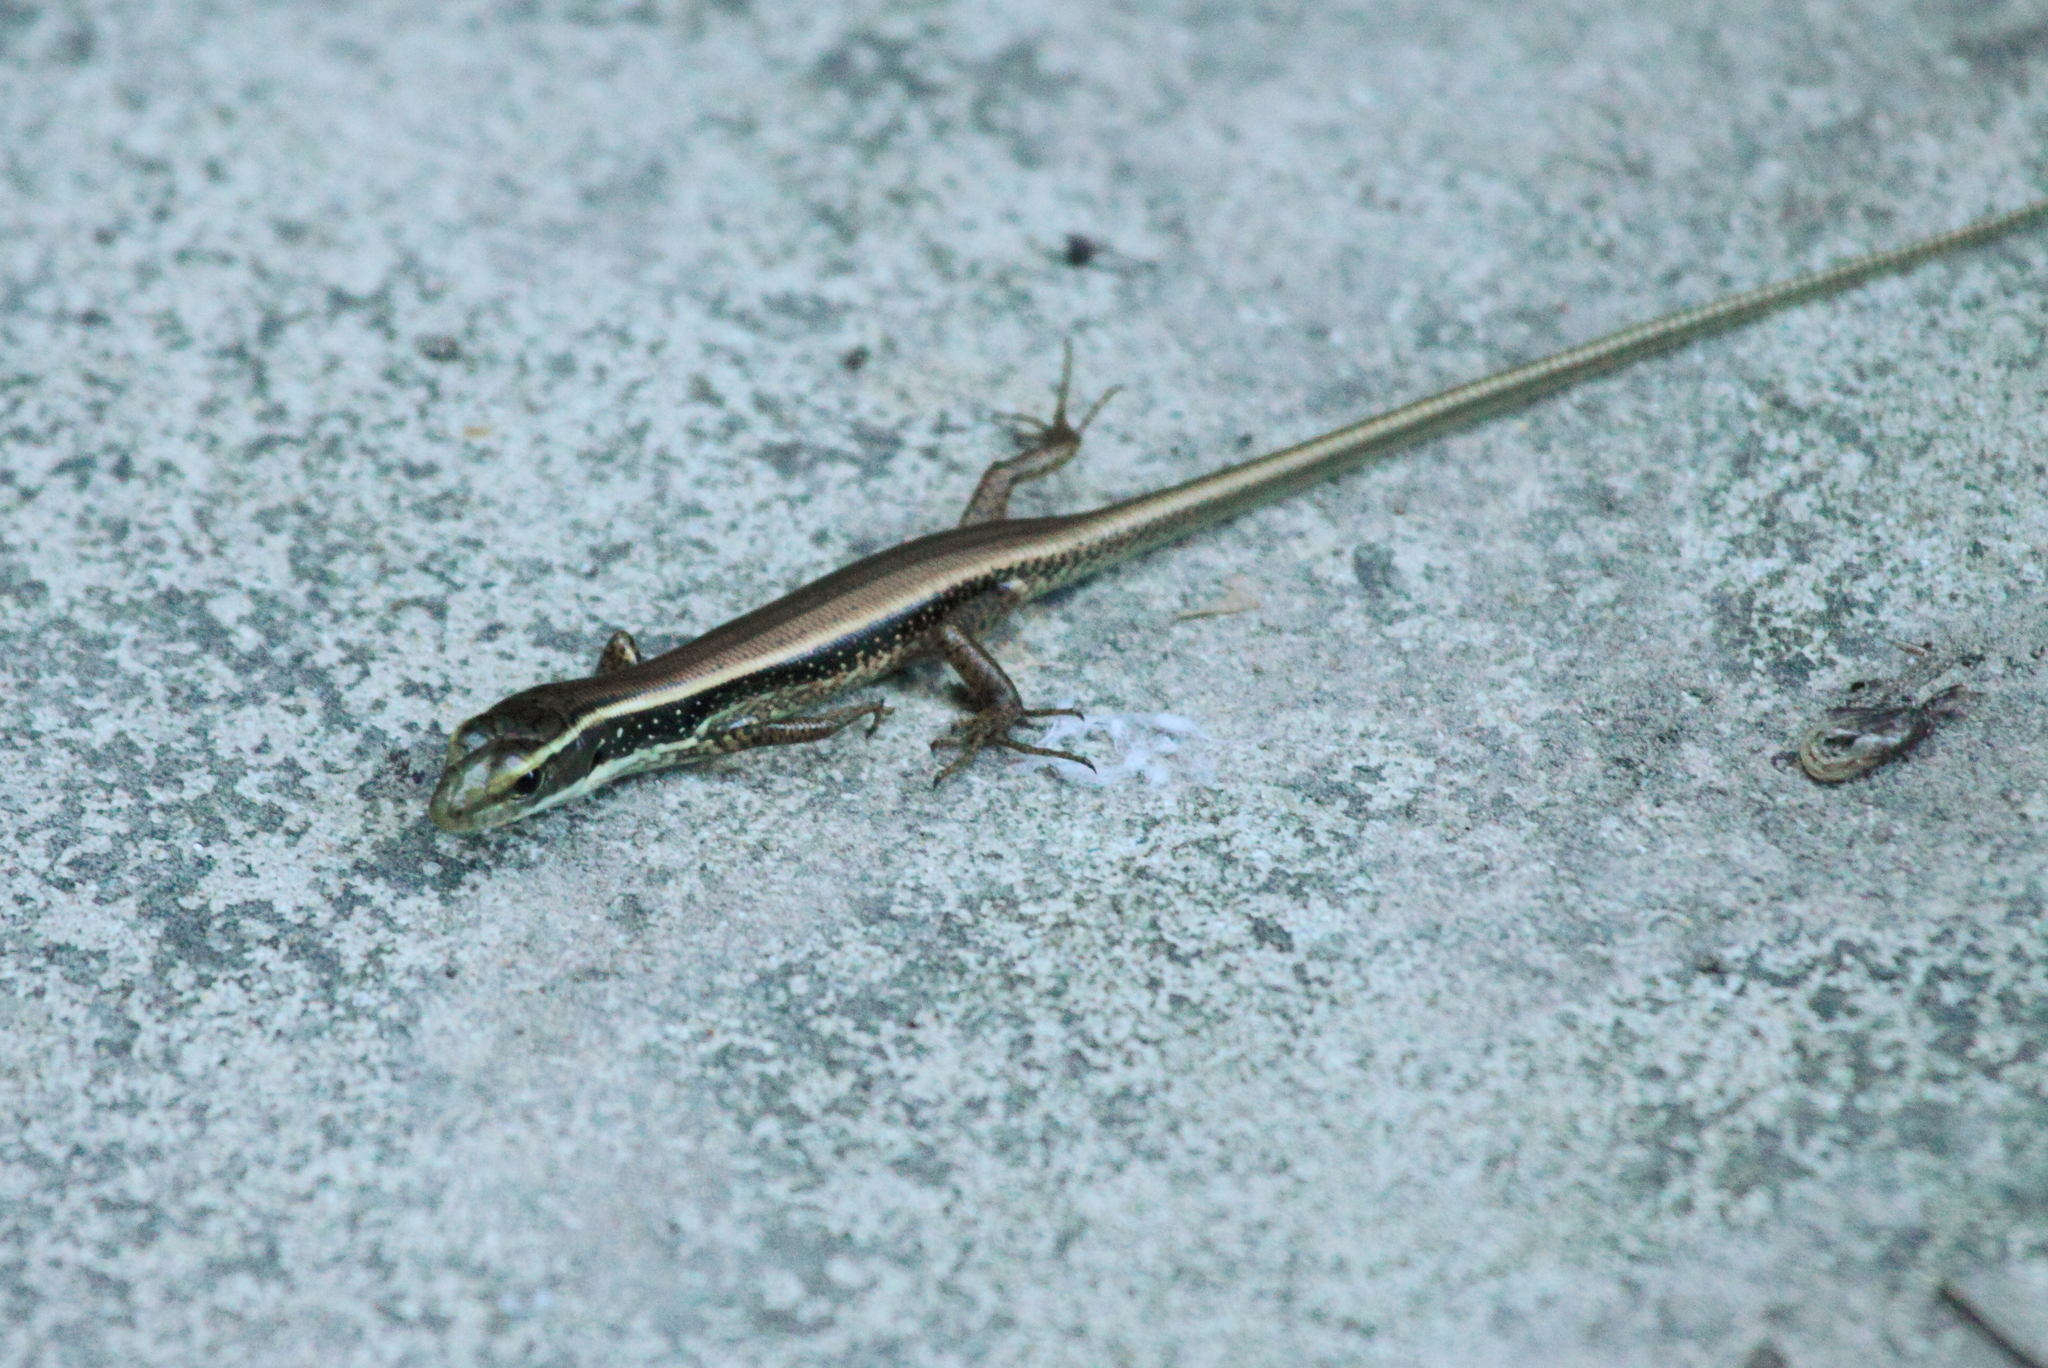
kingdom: Animalia
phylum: Chordata
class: Squamata
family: Scincidae
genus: Eulamprus
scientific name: Eulamprus quoyii
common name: Eastern water skink
